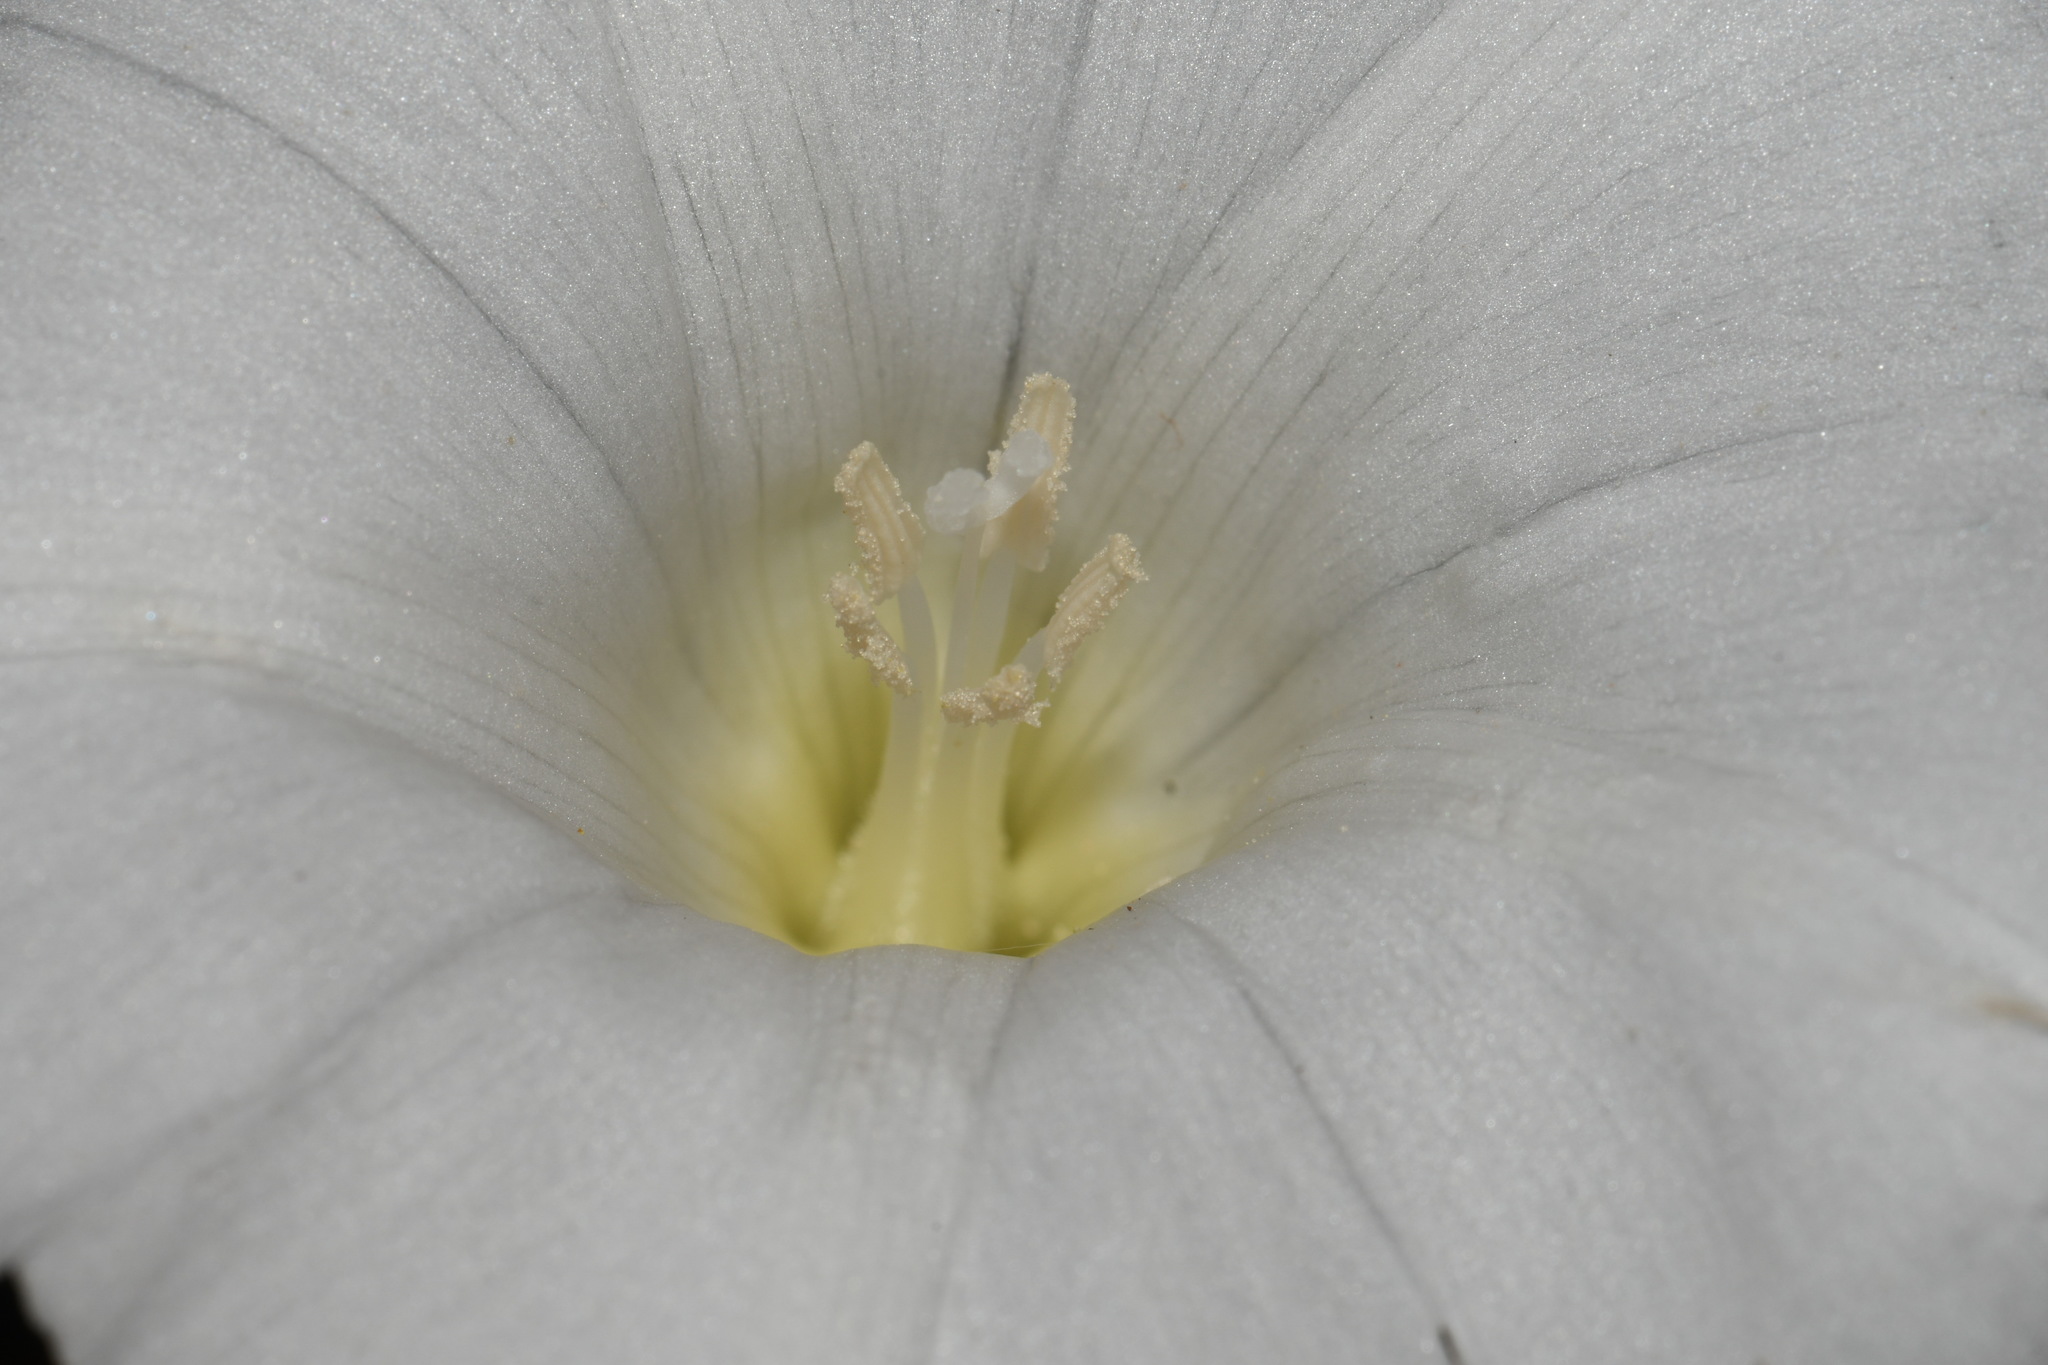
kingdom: Plantae
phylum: Tracheophyta
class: Magnoliopsida
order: Solanales
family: Convolvulaceae
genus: Calystegia
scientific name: Calystegia catesbeiana
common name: Catesby's false bindweed
